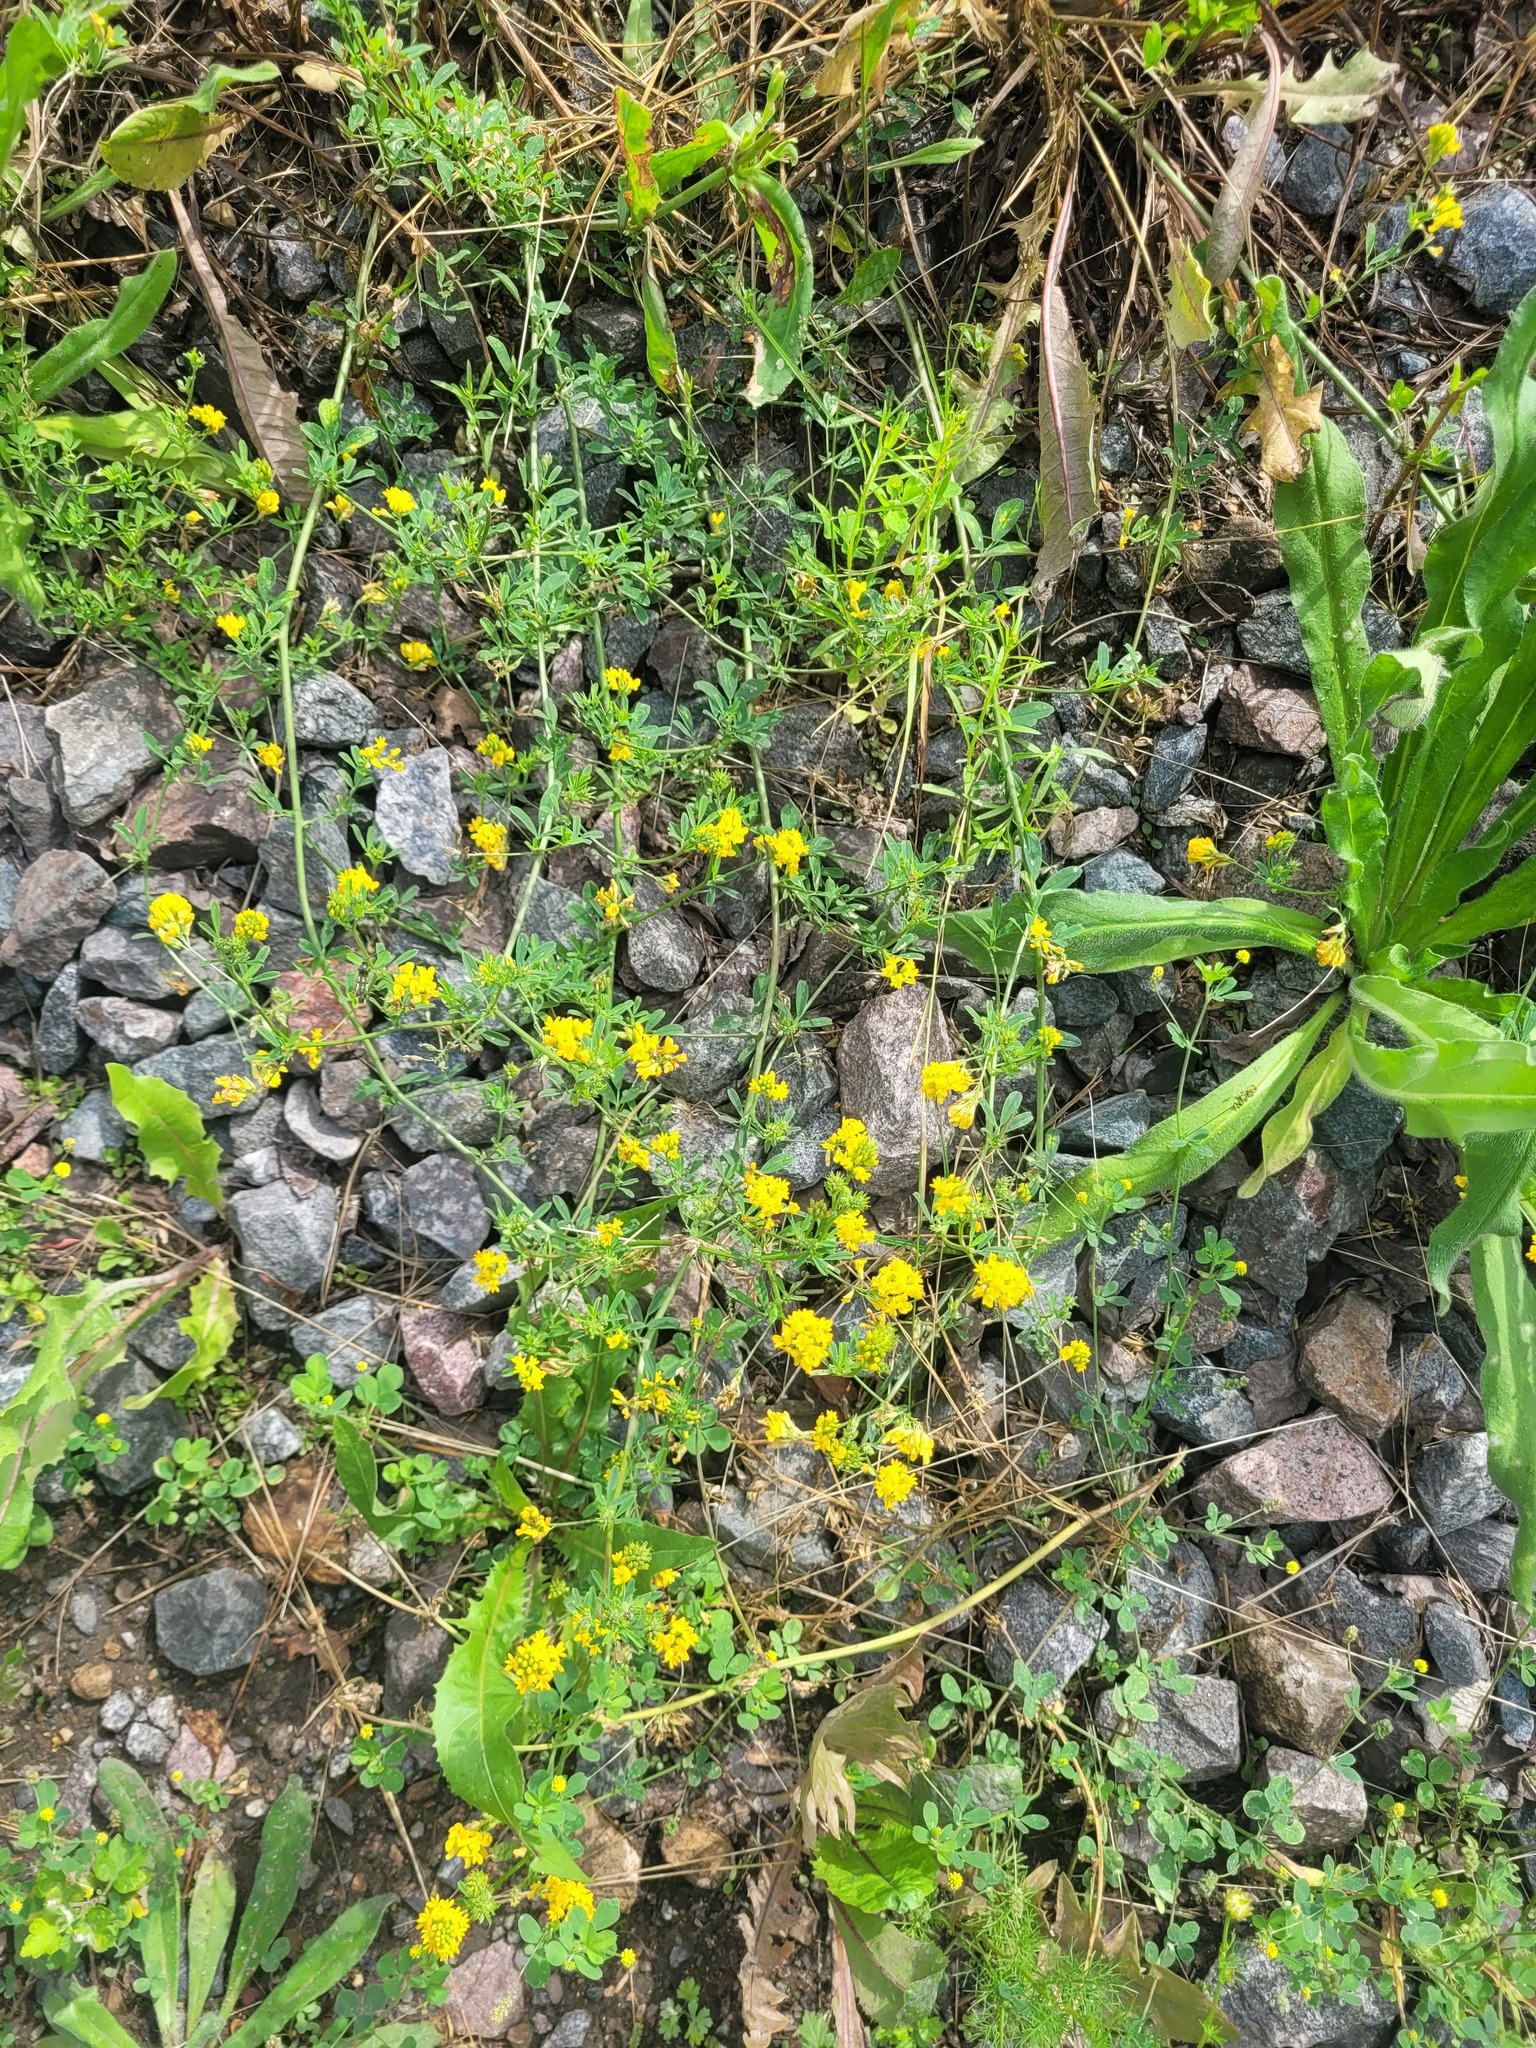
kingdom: Plantae
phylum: Tracheophyta
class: Magnoliopsida
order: Fabales
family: Fabaceae
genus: Medicago
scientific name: Medicago falcata
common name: Sickle medick
